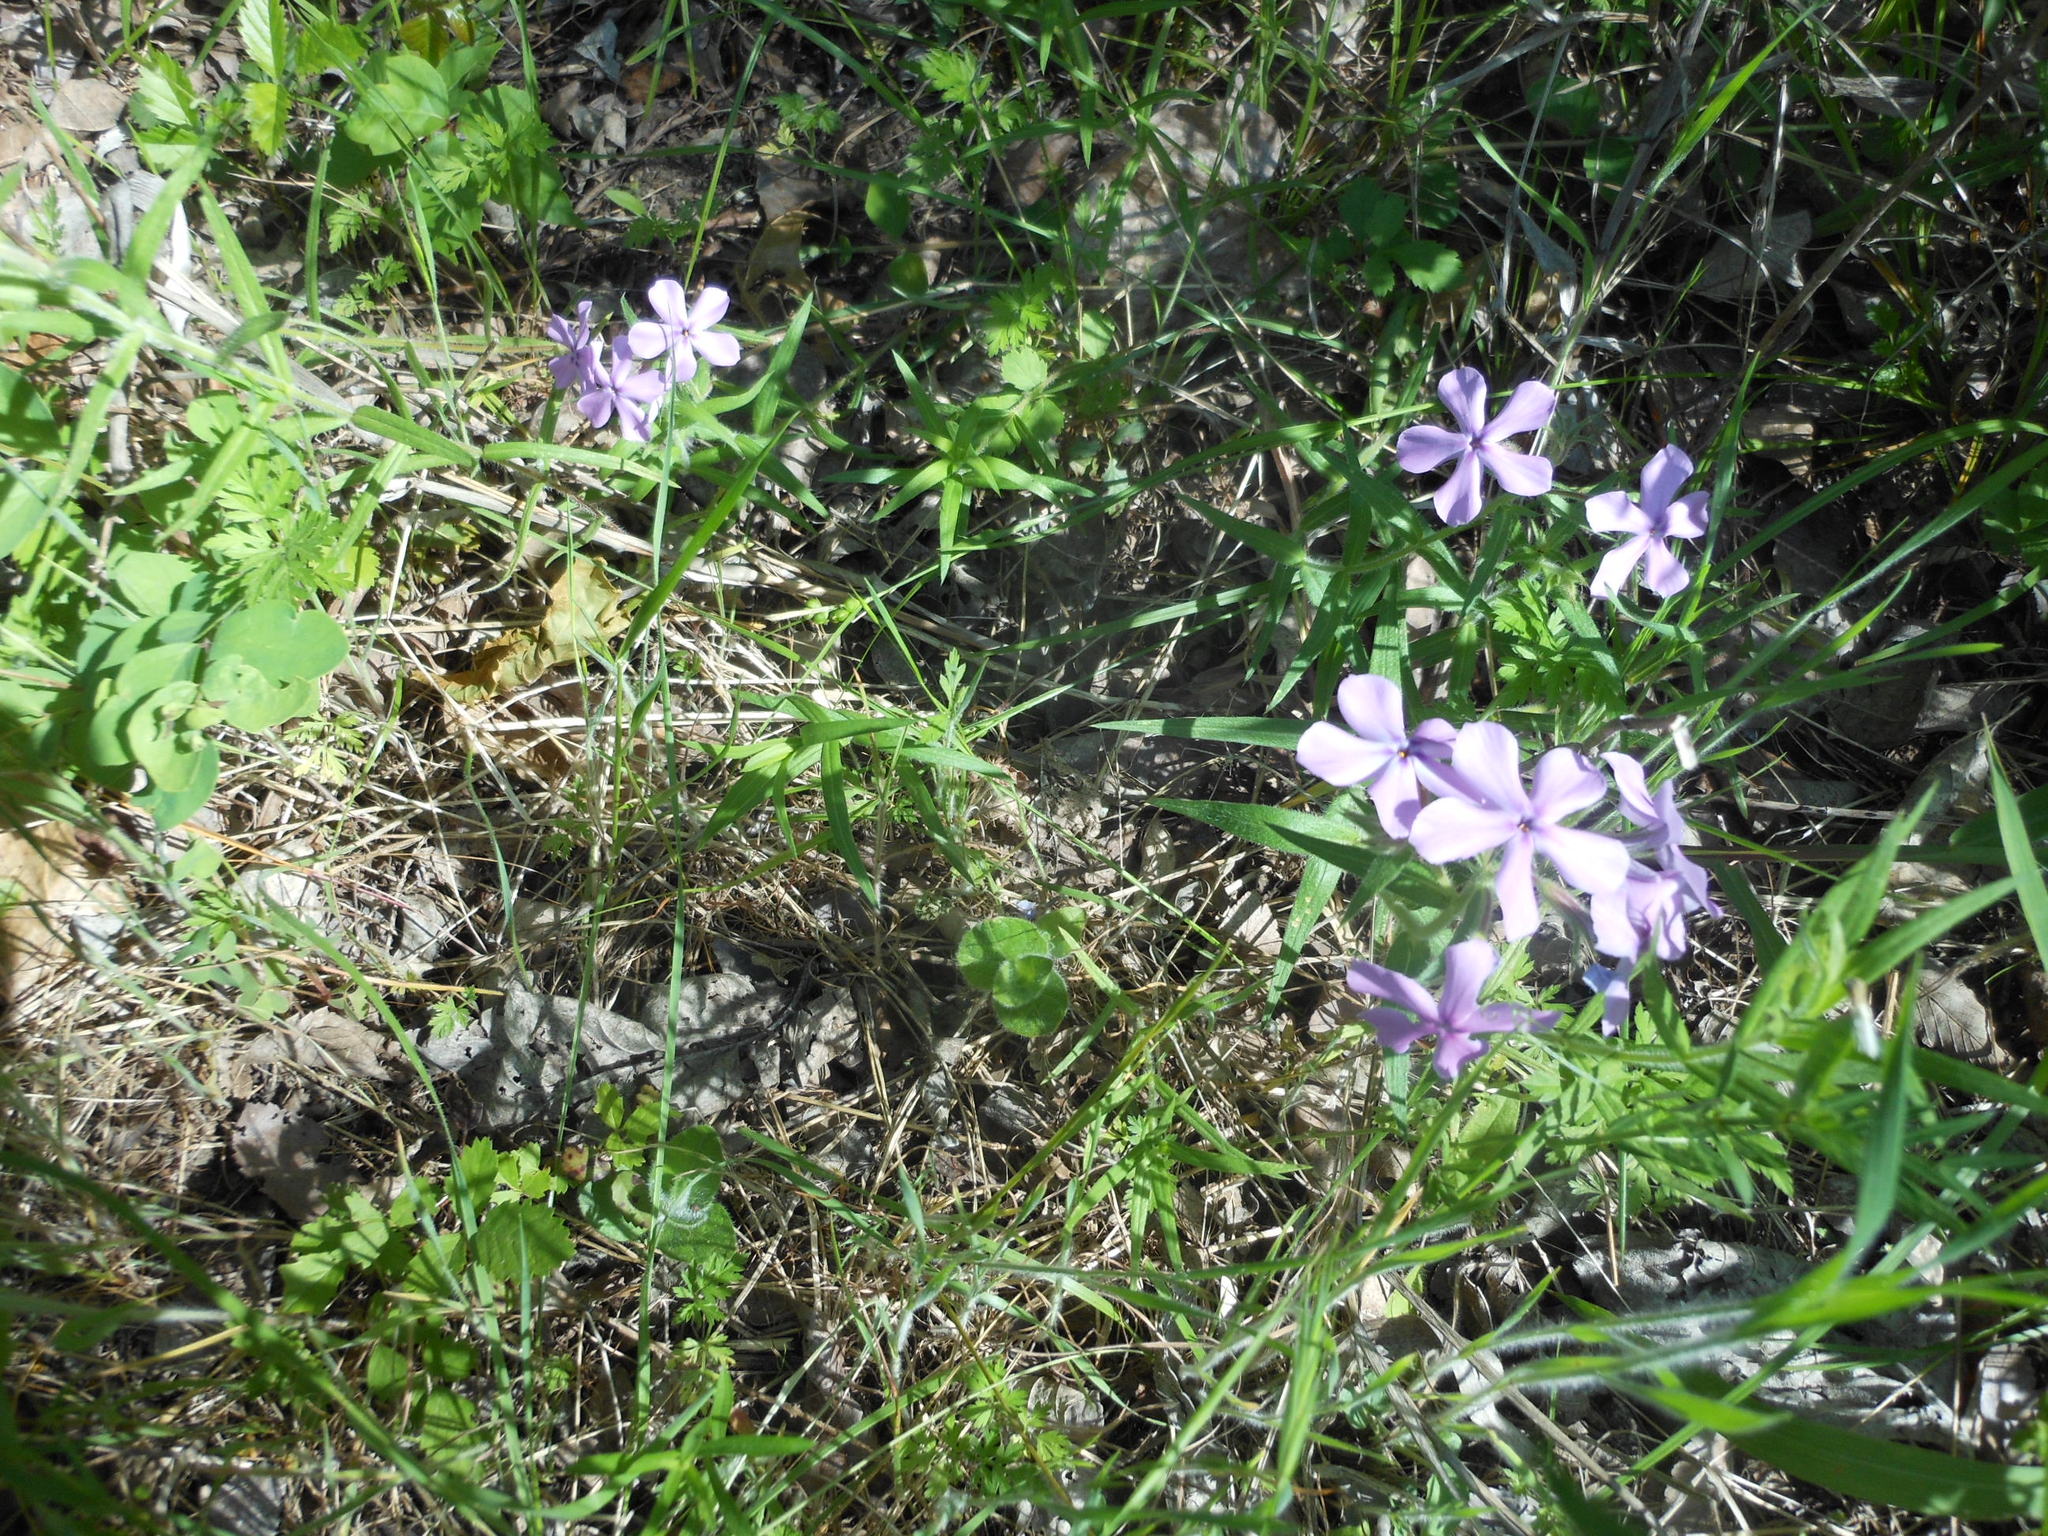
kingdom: Plantae
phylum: Tracheophyta
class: Magnoliopsida
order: Ericales
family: Polemoniaceae
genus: Phlox
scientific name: Phlox pilosa
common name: Prairie phlox
